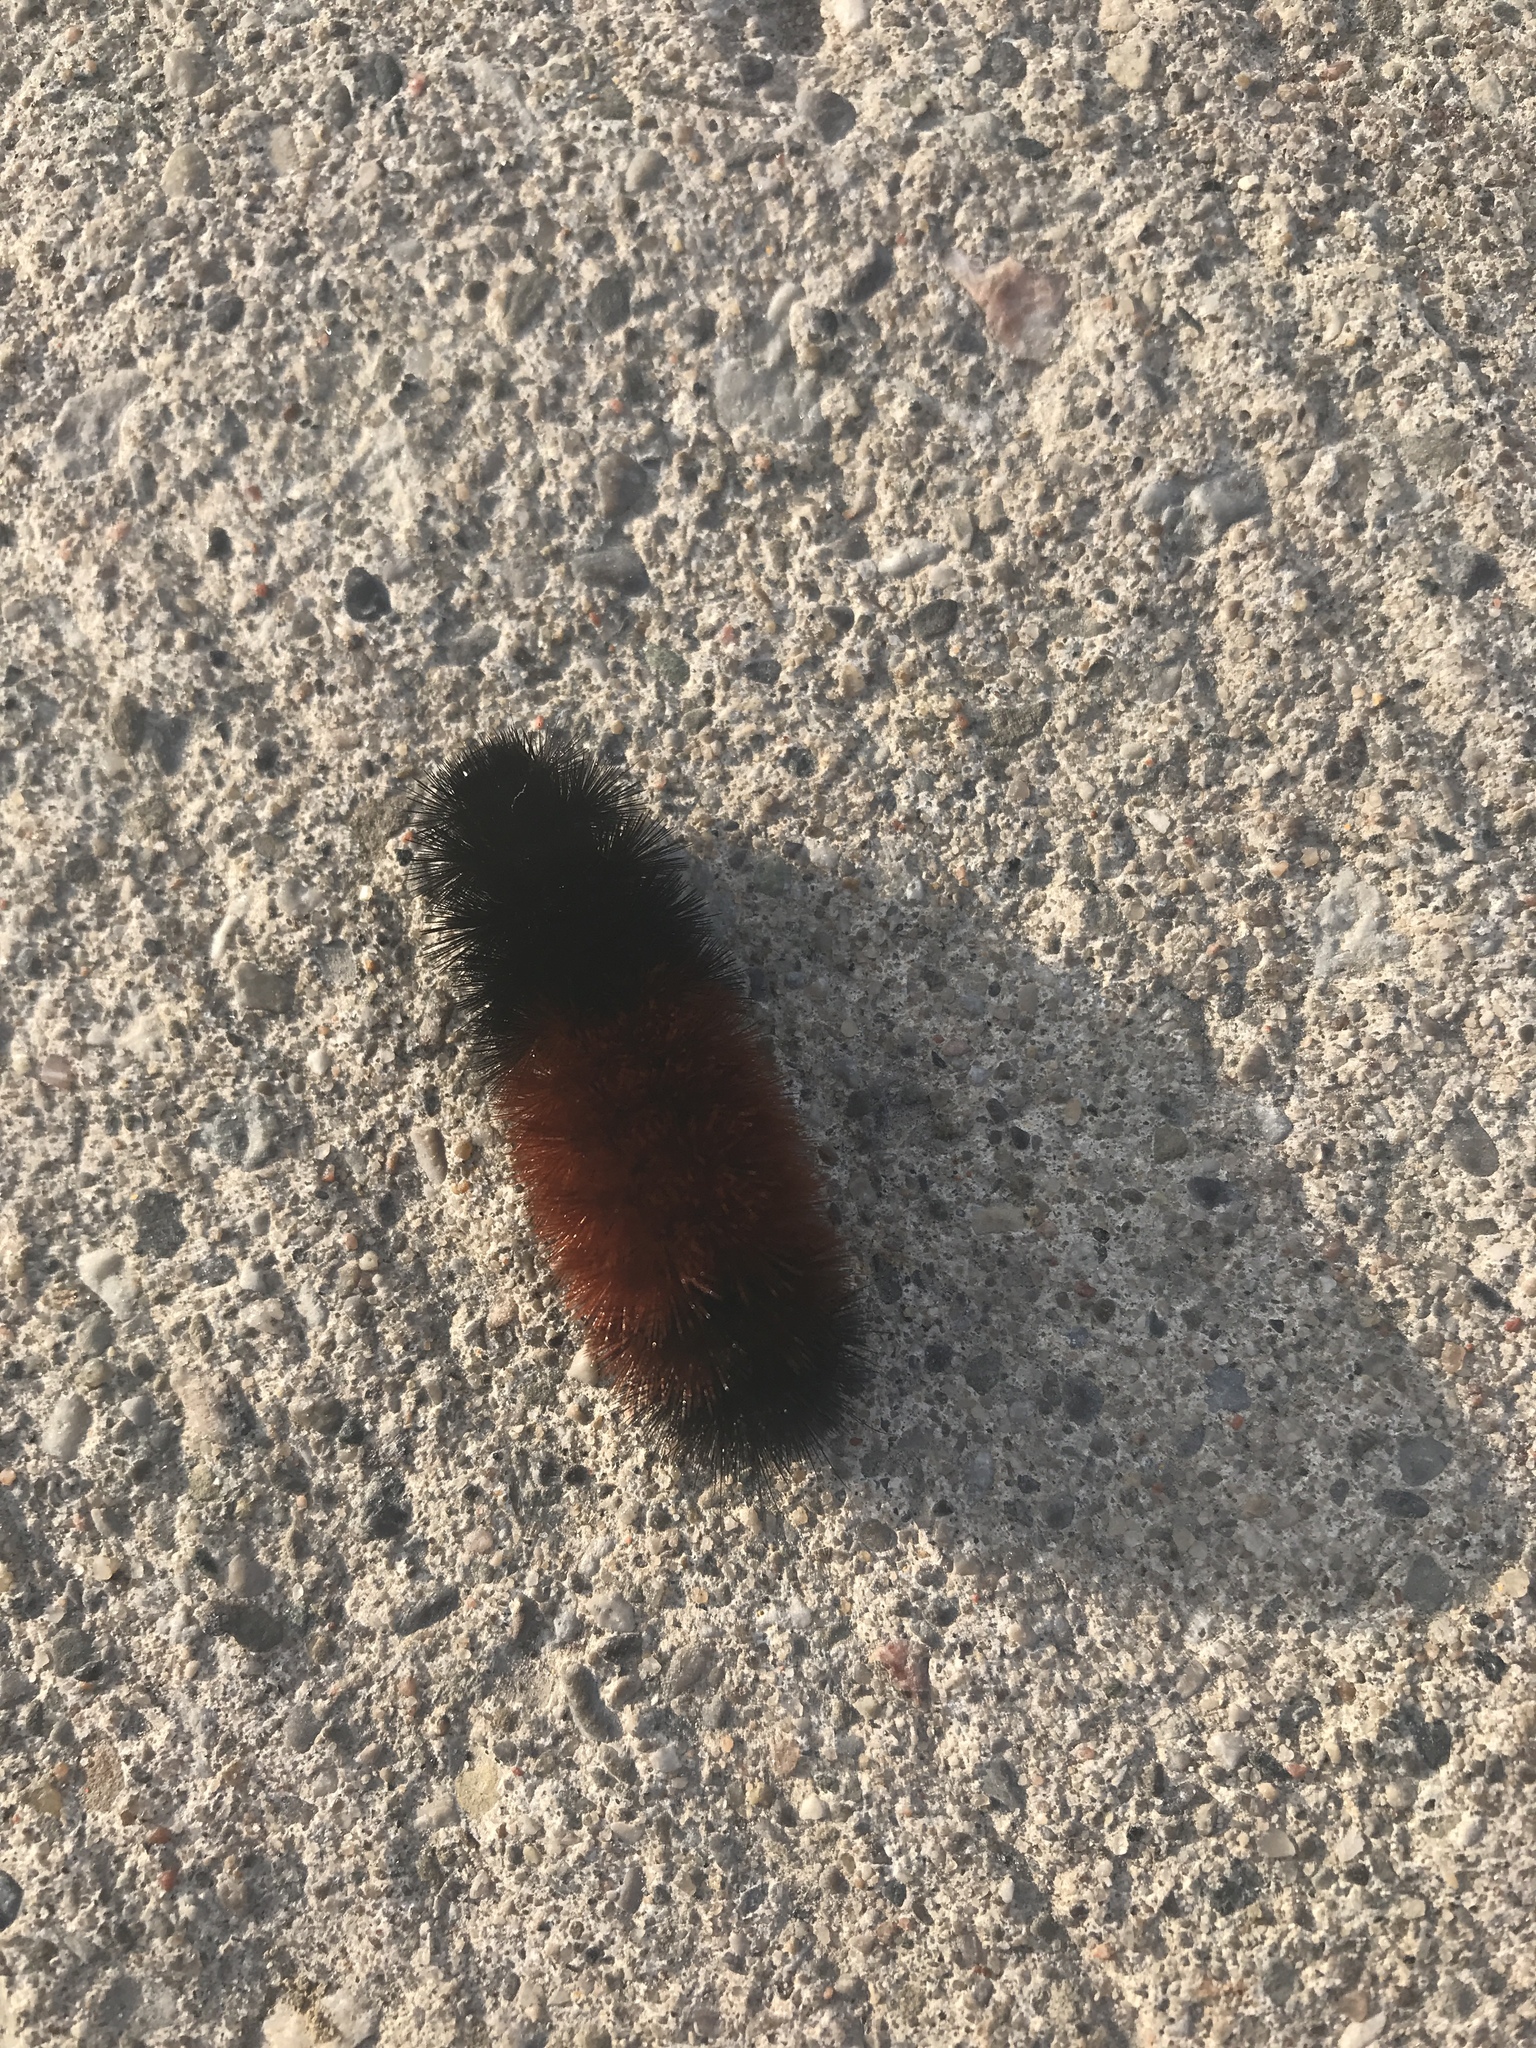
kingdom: Animalia
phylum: Arthropoda
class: Insecta
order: Lepidoptera
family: Erebidae
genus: Pyrrharctia
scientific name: Pyrrharctia isabella
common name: Isabella tiger moth
